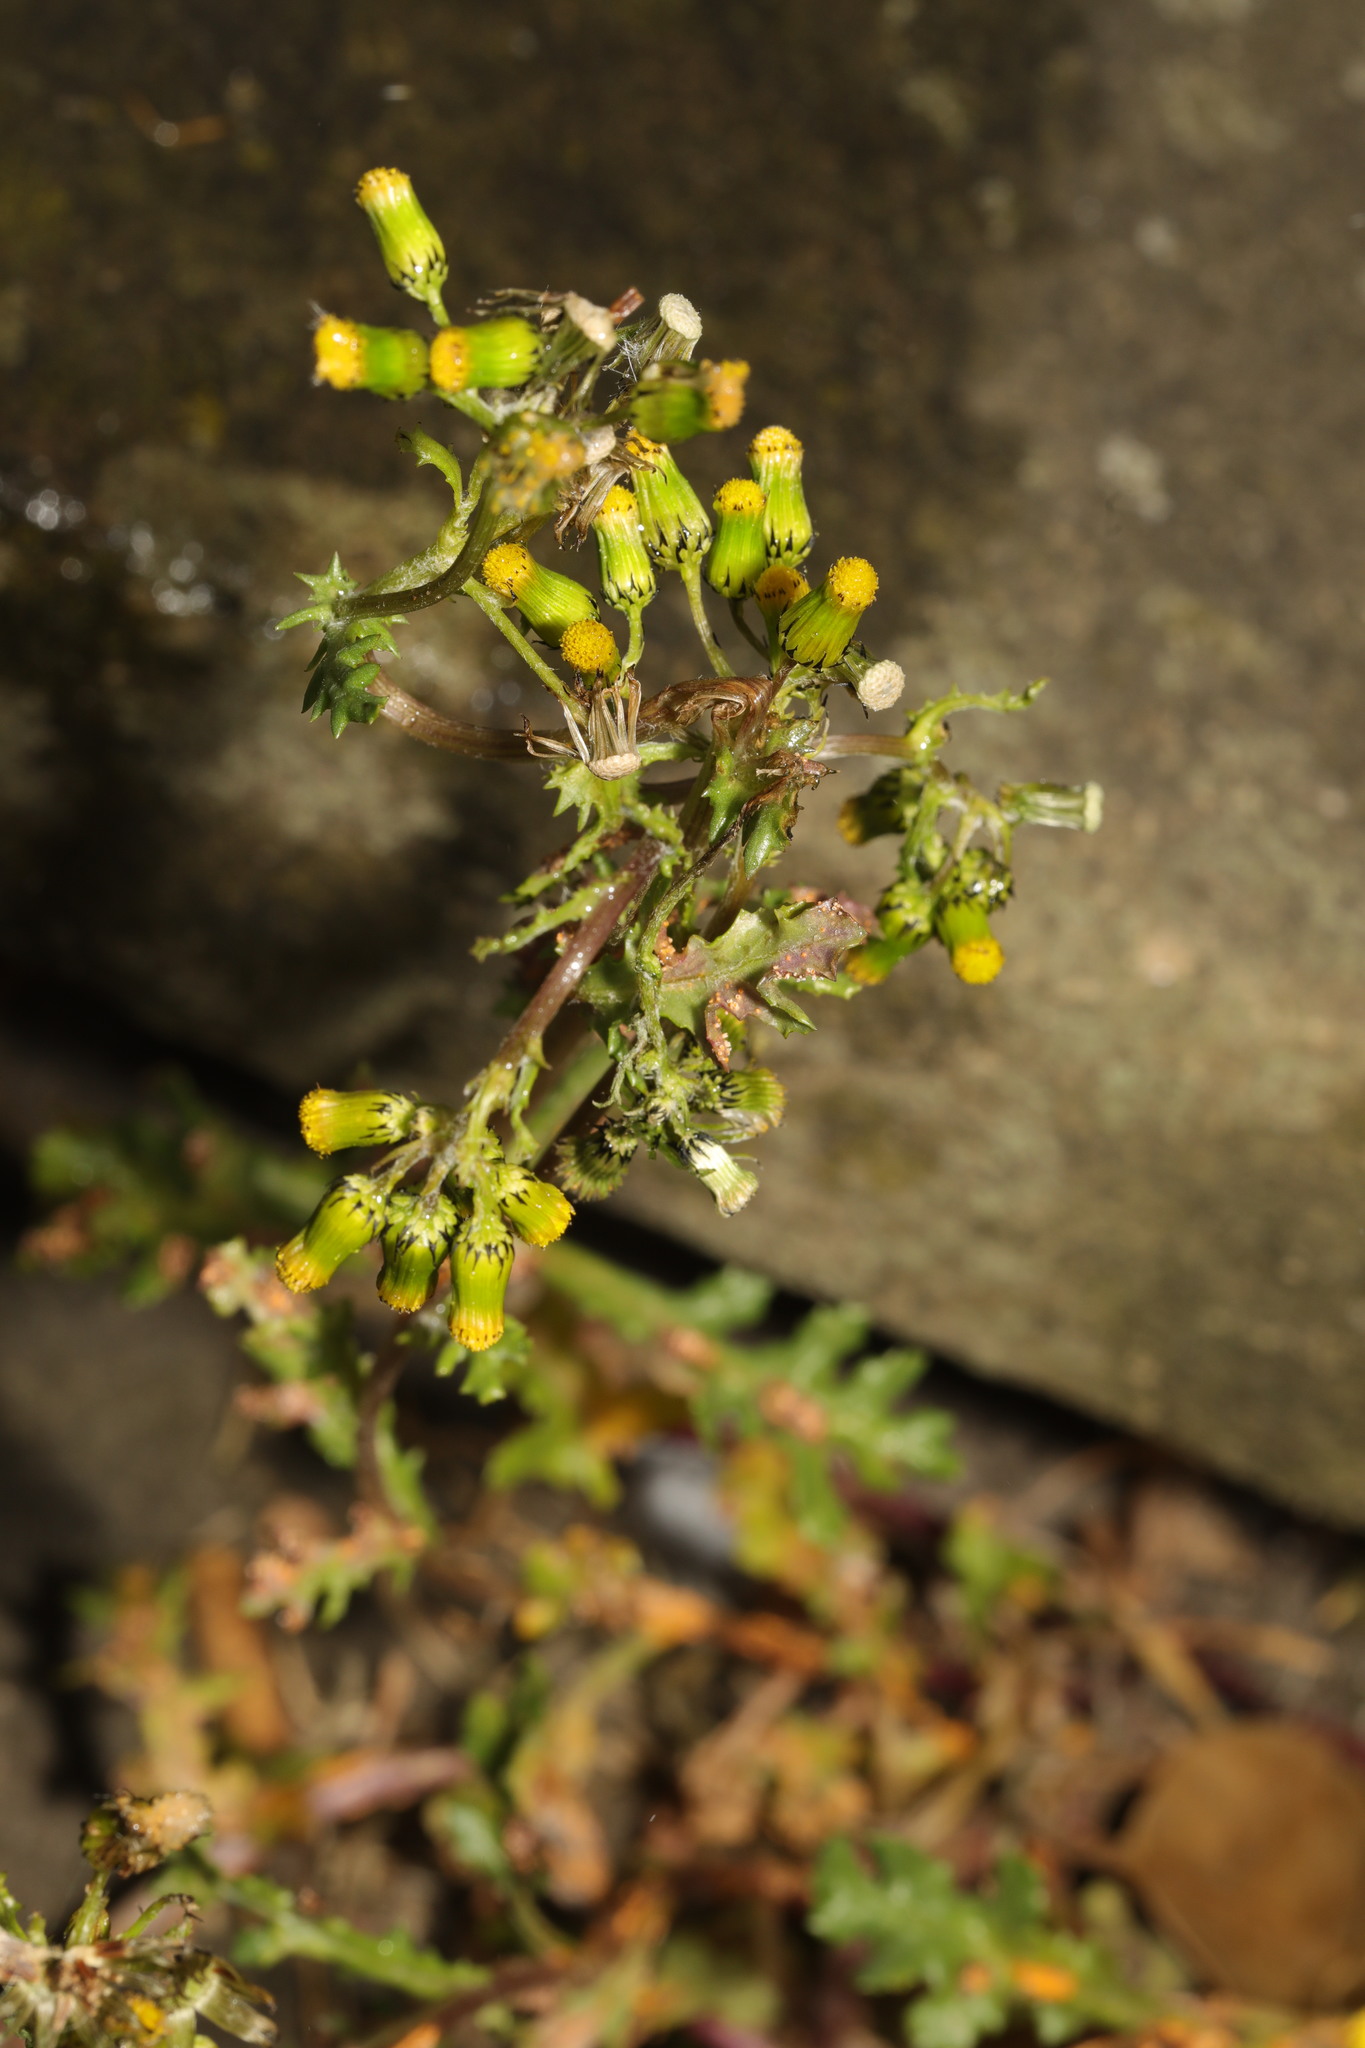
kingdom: Plantae
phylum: Tracheophyta
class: Magnoliopsida
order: Asterales
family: Asteraceae
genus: Senecio
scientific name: Senecio vulgaris
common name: Old-man-in-the-spring
